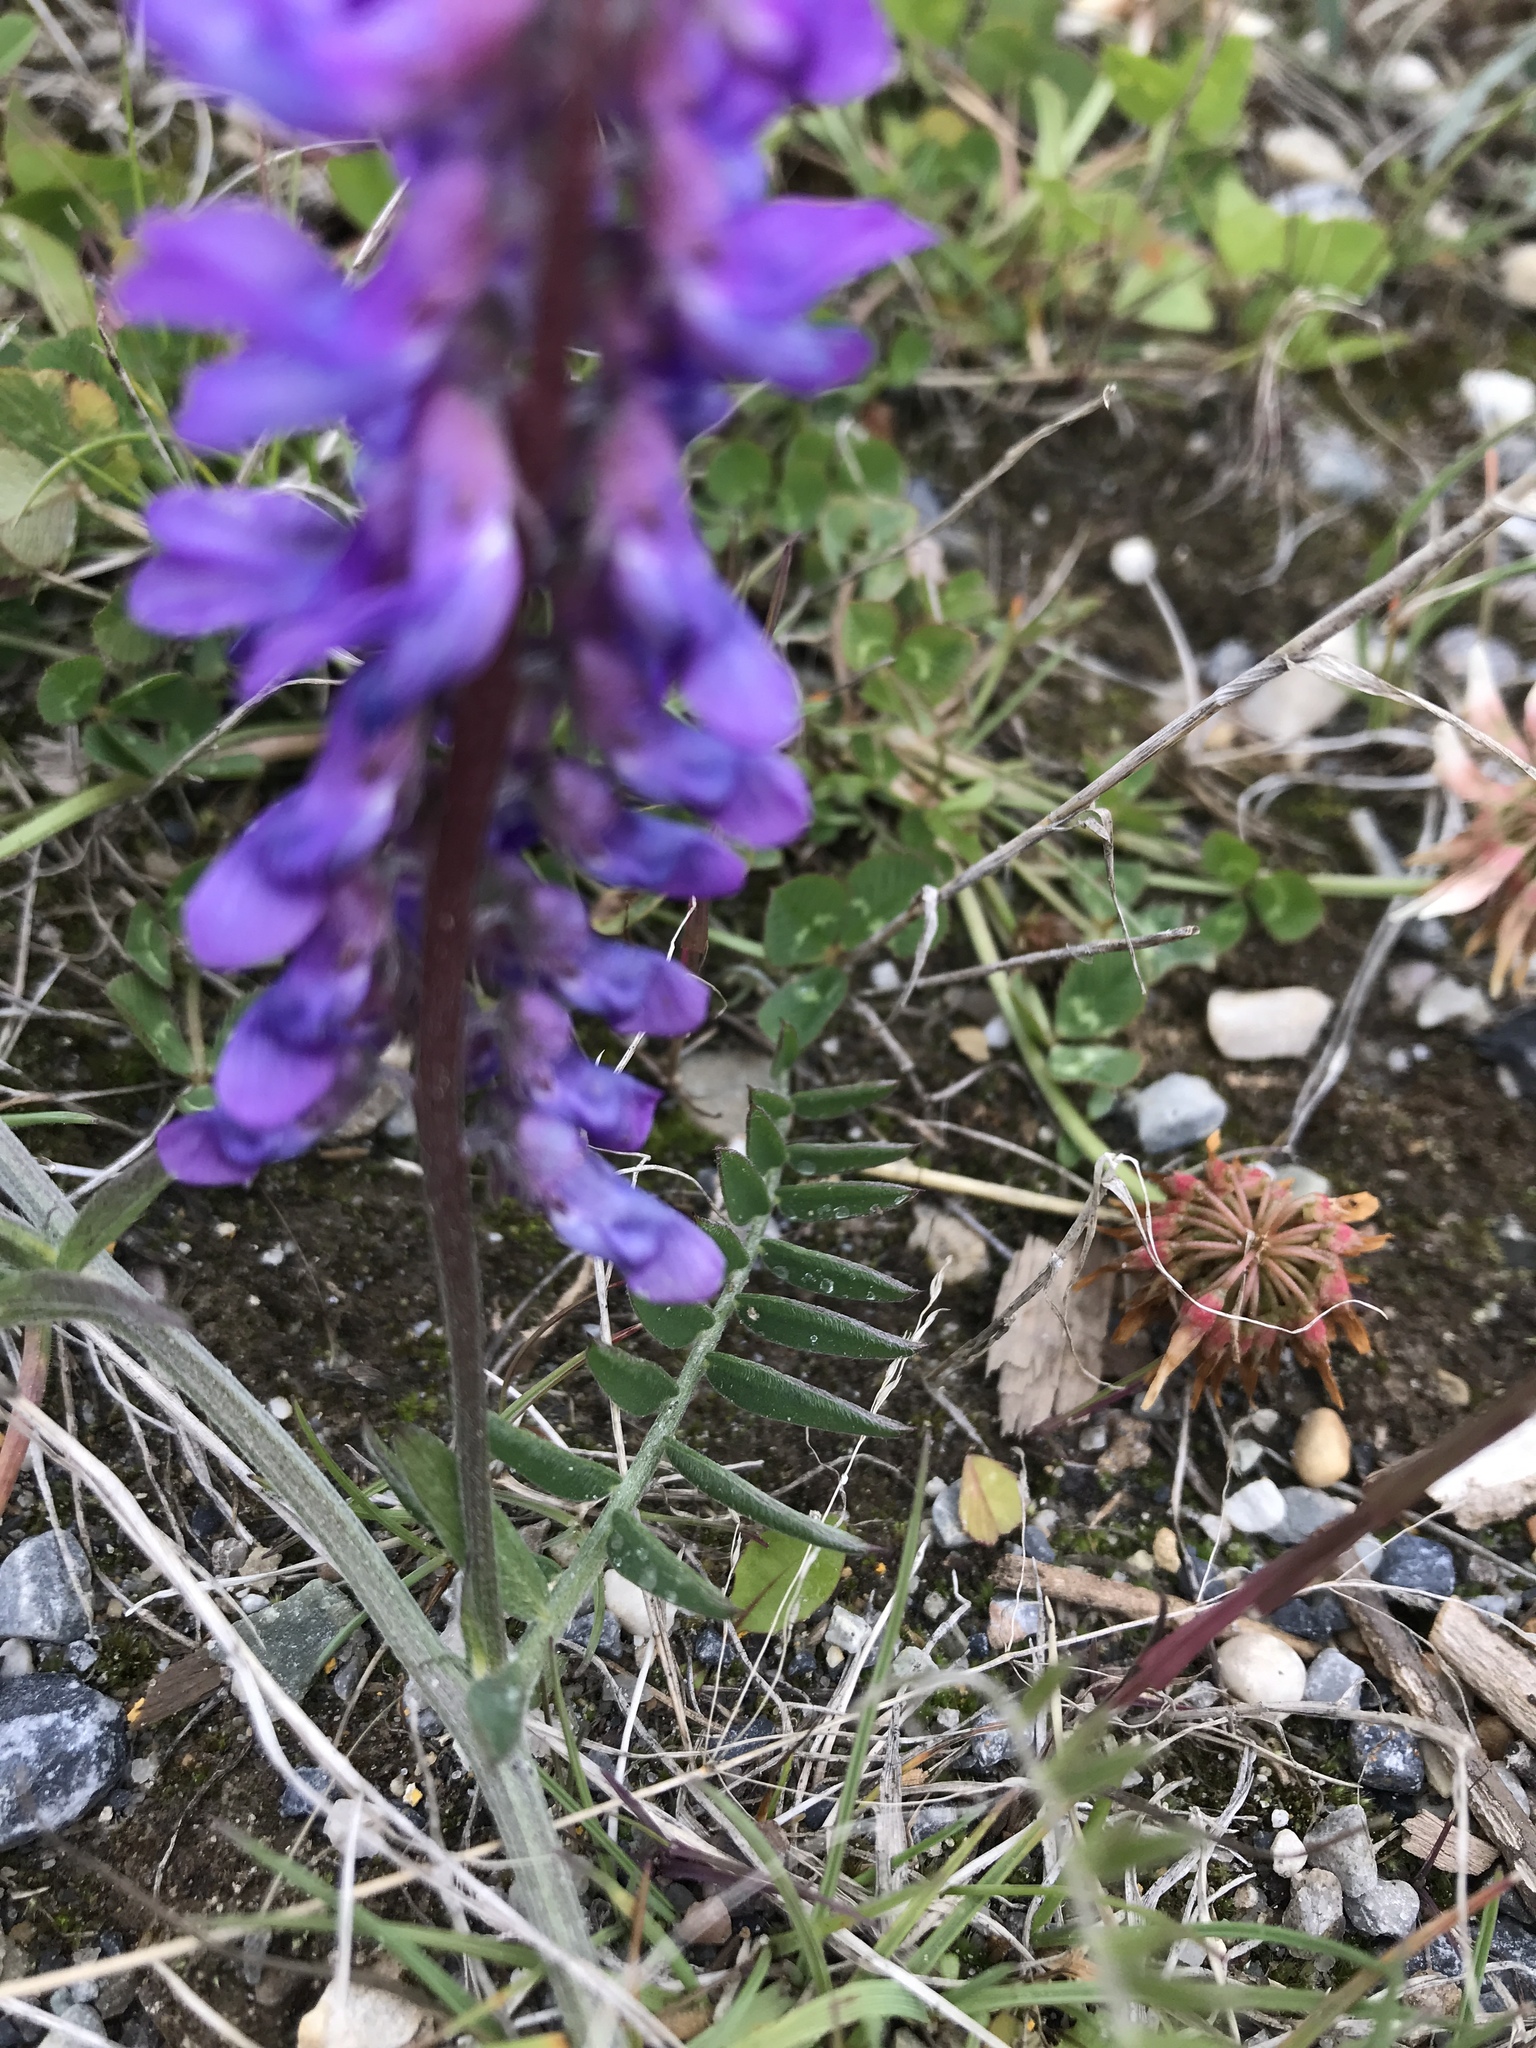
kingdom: Plantae
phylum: Tracheophyta
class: Magnoliopsida
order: Fabales
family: Fabaceae
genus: Vicia
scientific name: Vicia cracca
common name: Bird vetch
